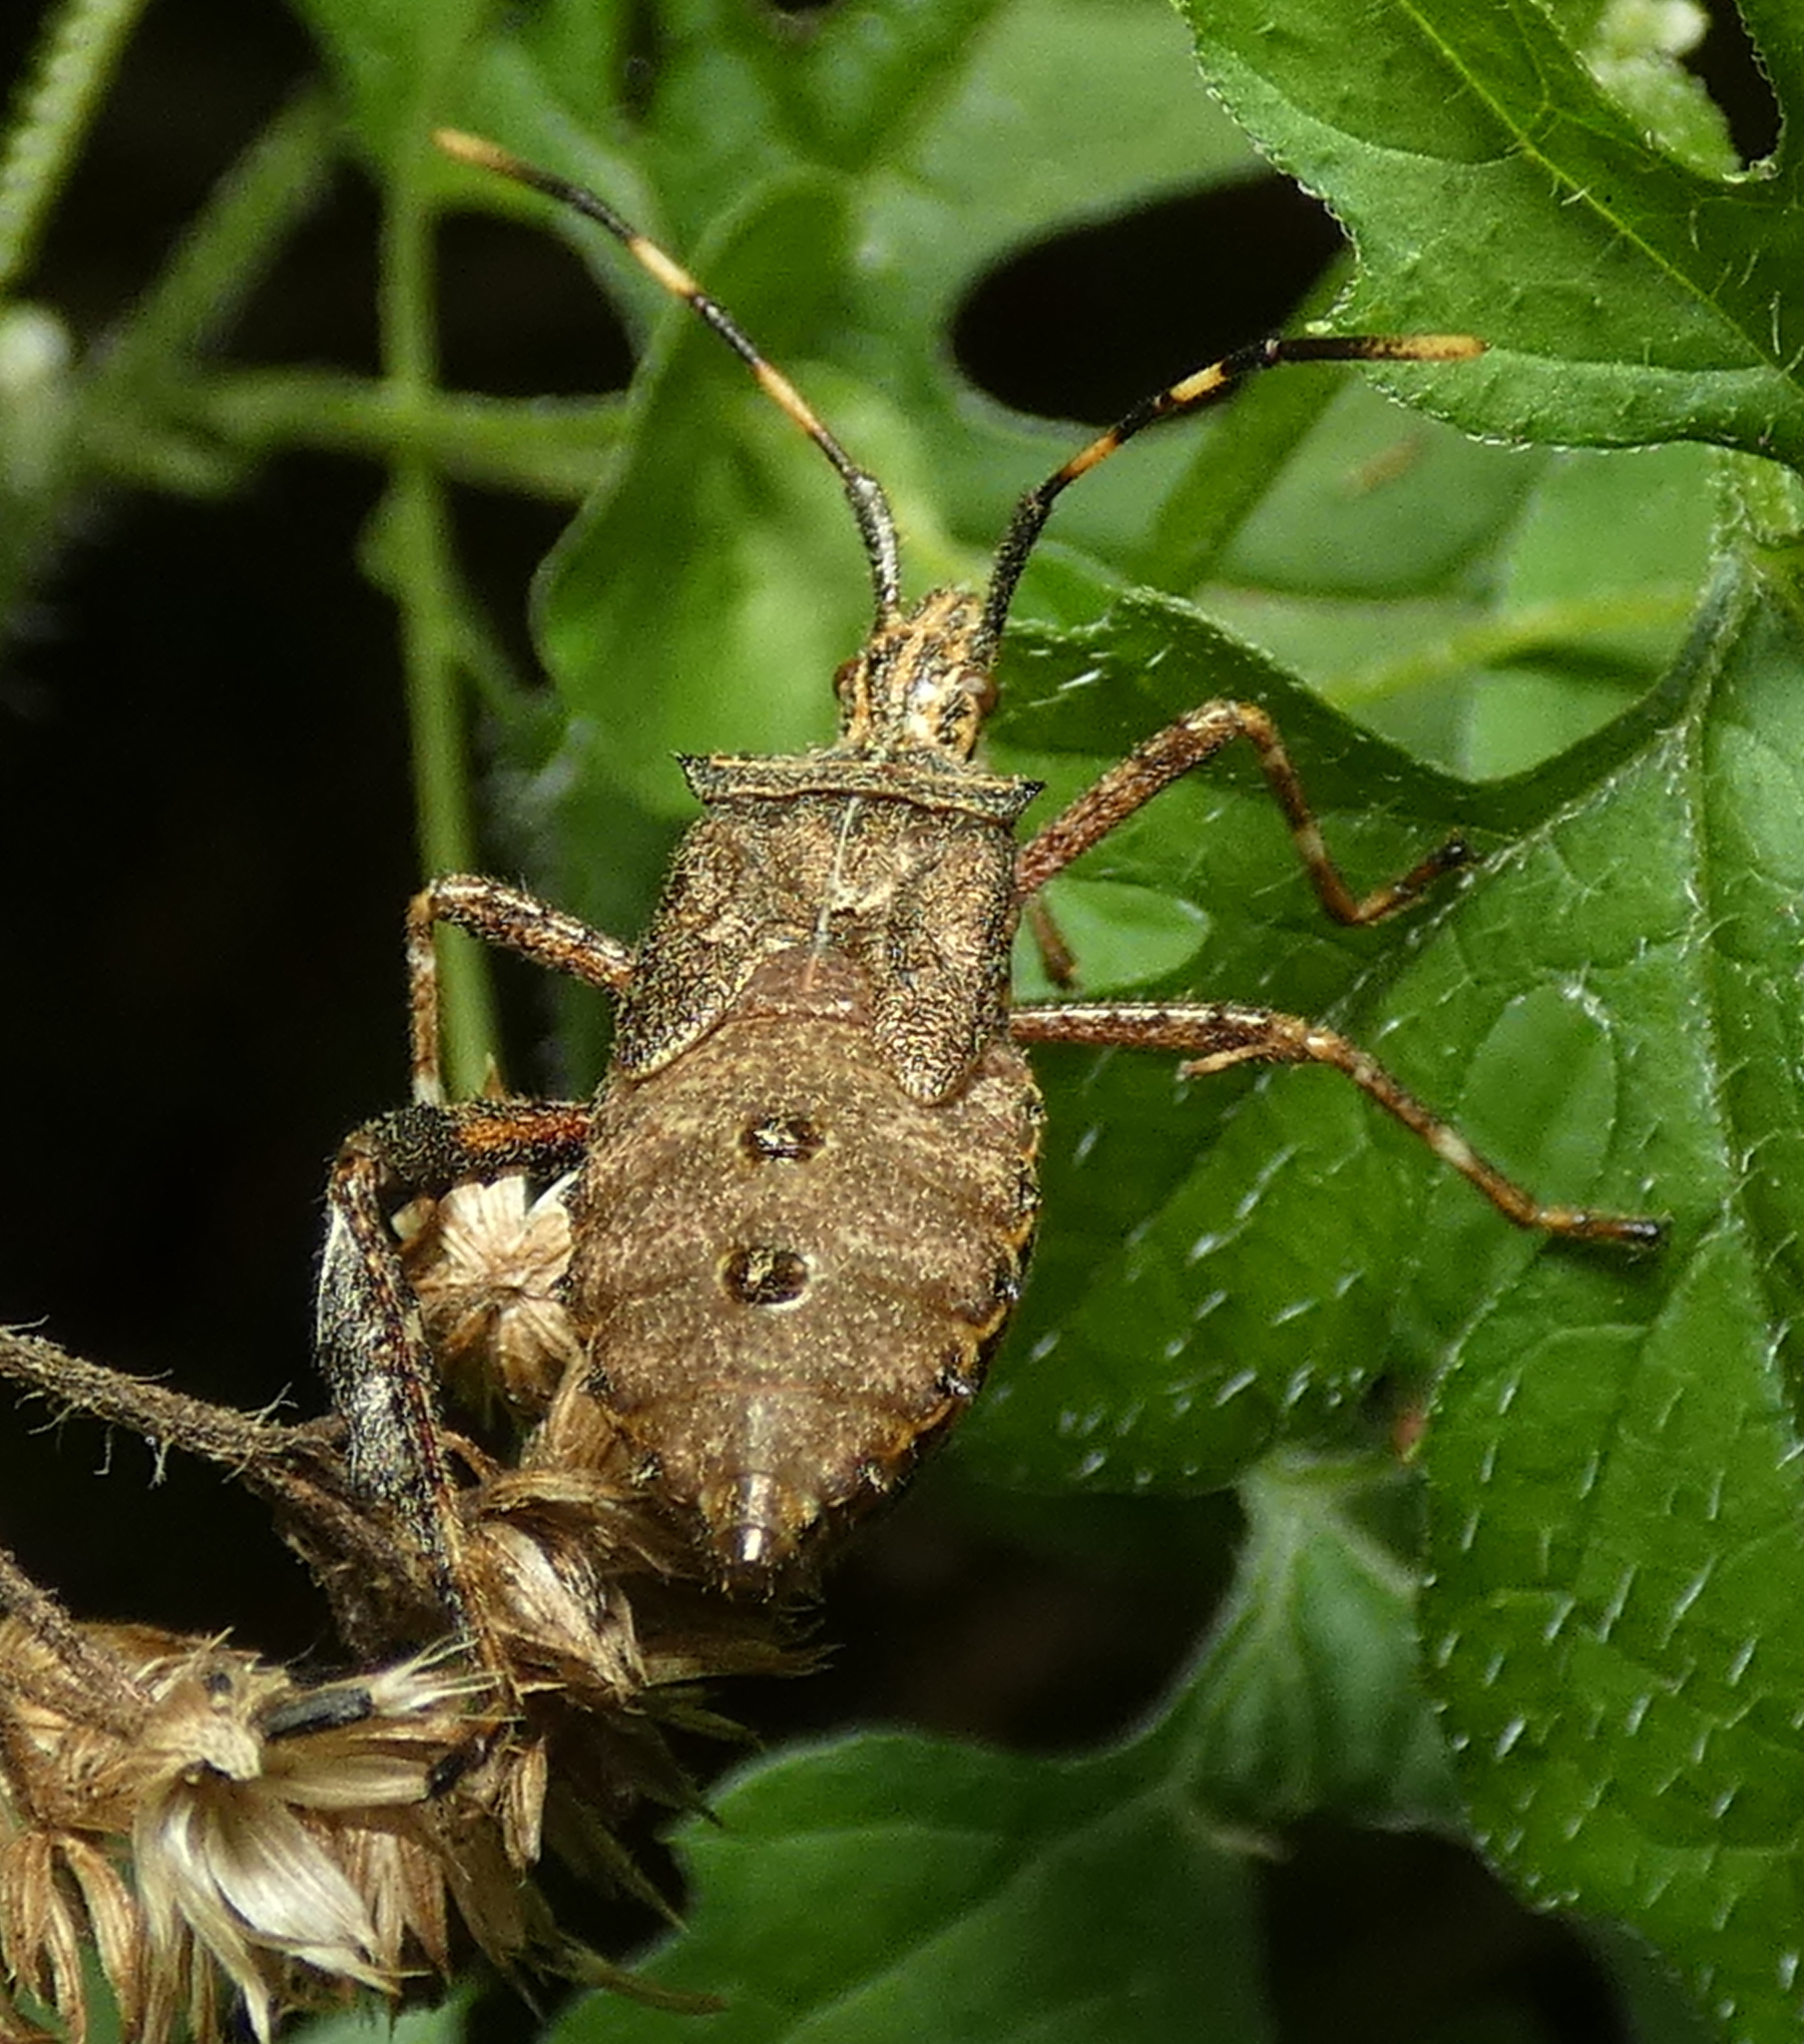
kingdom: Animalia
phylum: Arthropoda
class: Insecta
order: Hemiptera
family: Coreidae
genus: Leptoglossus
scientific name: Leptoglossus gonagra
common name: Citron bug
